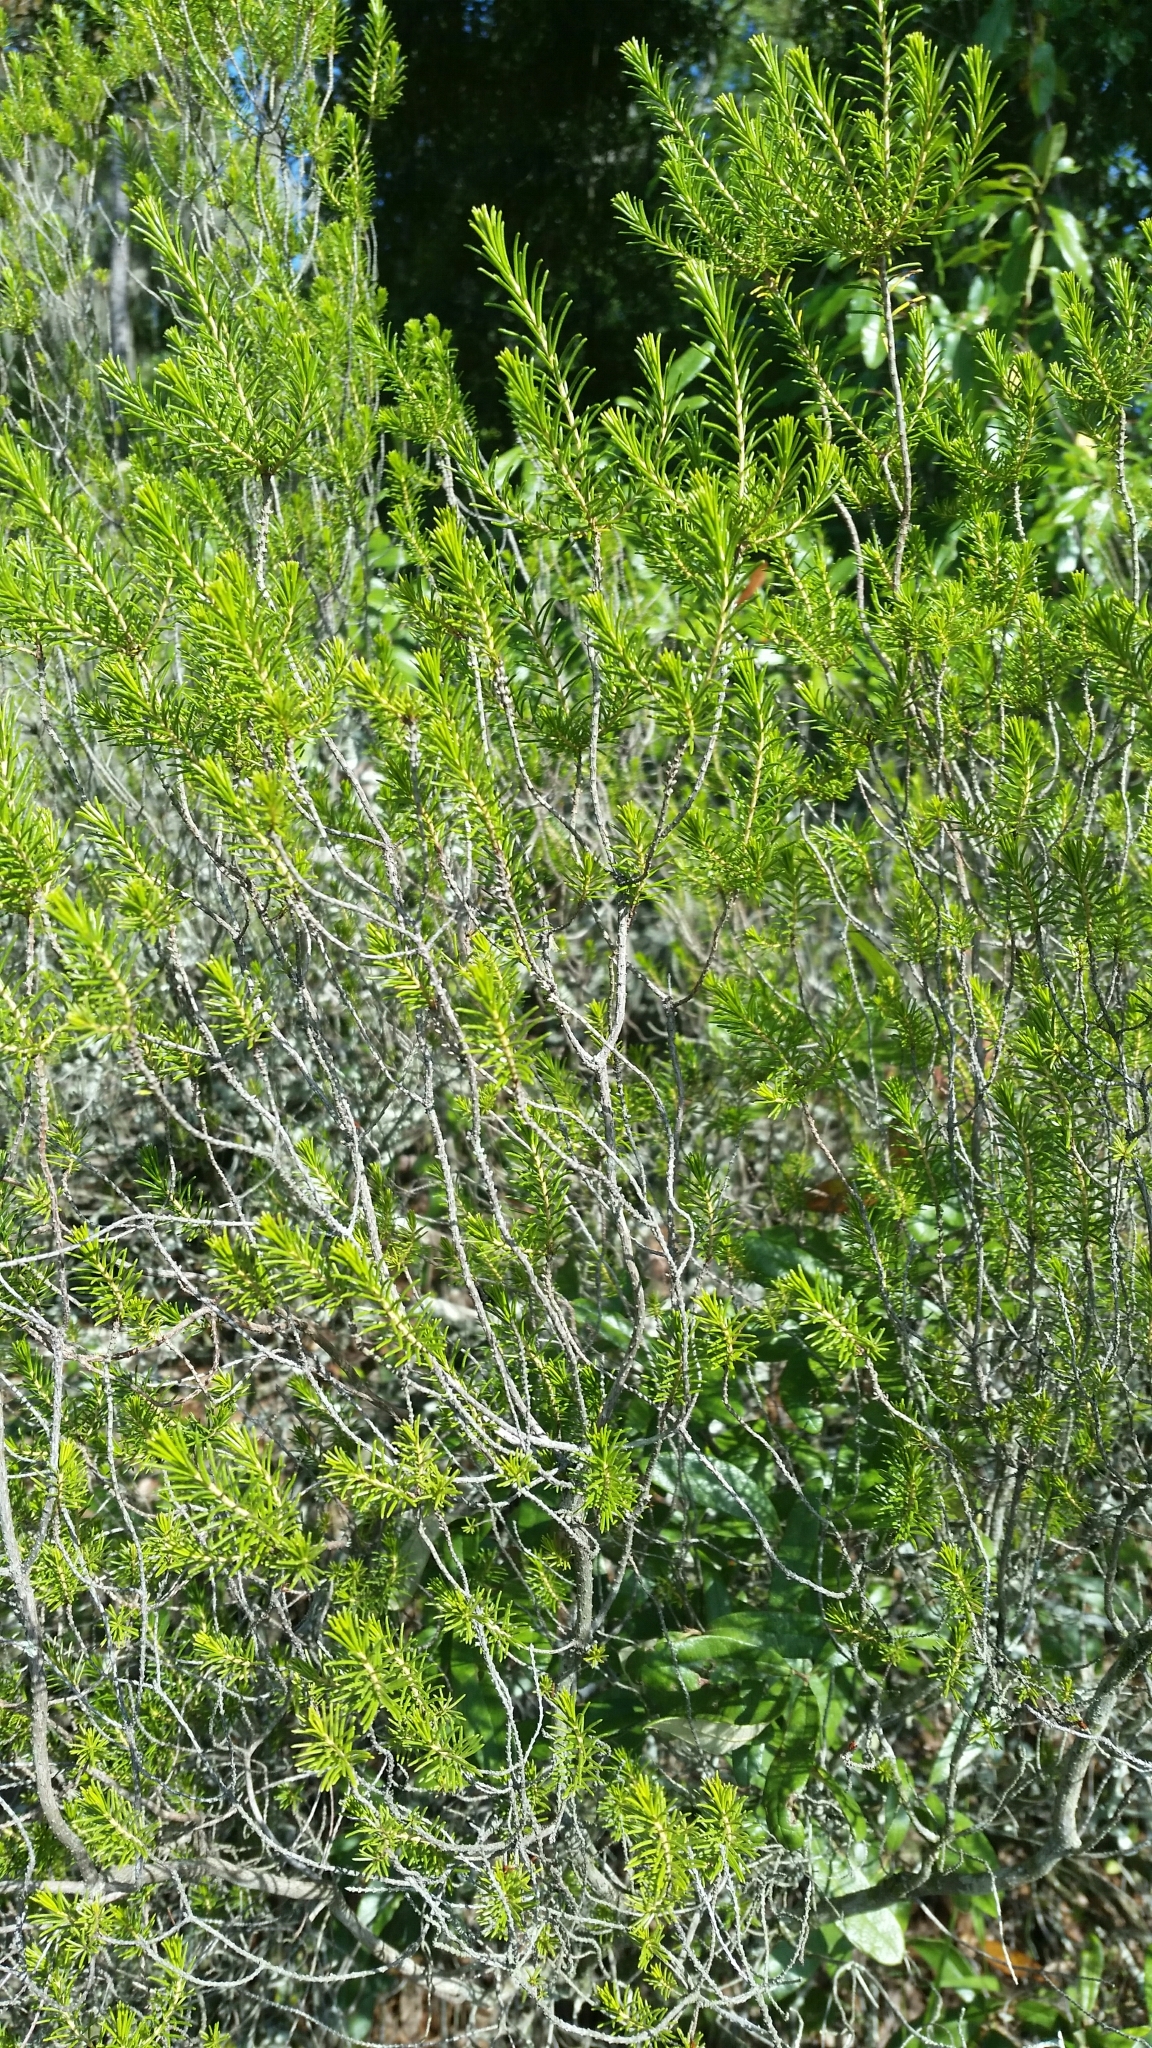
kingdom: Plantae
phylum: Tracheophyta
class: Magnoliopsida
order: Ericales
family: Ericaceae
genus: Ceratiola
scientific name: Ceratiola ericoides
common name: Sandhill-rosemary
